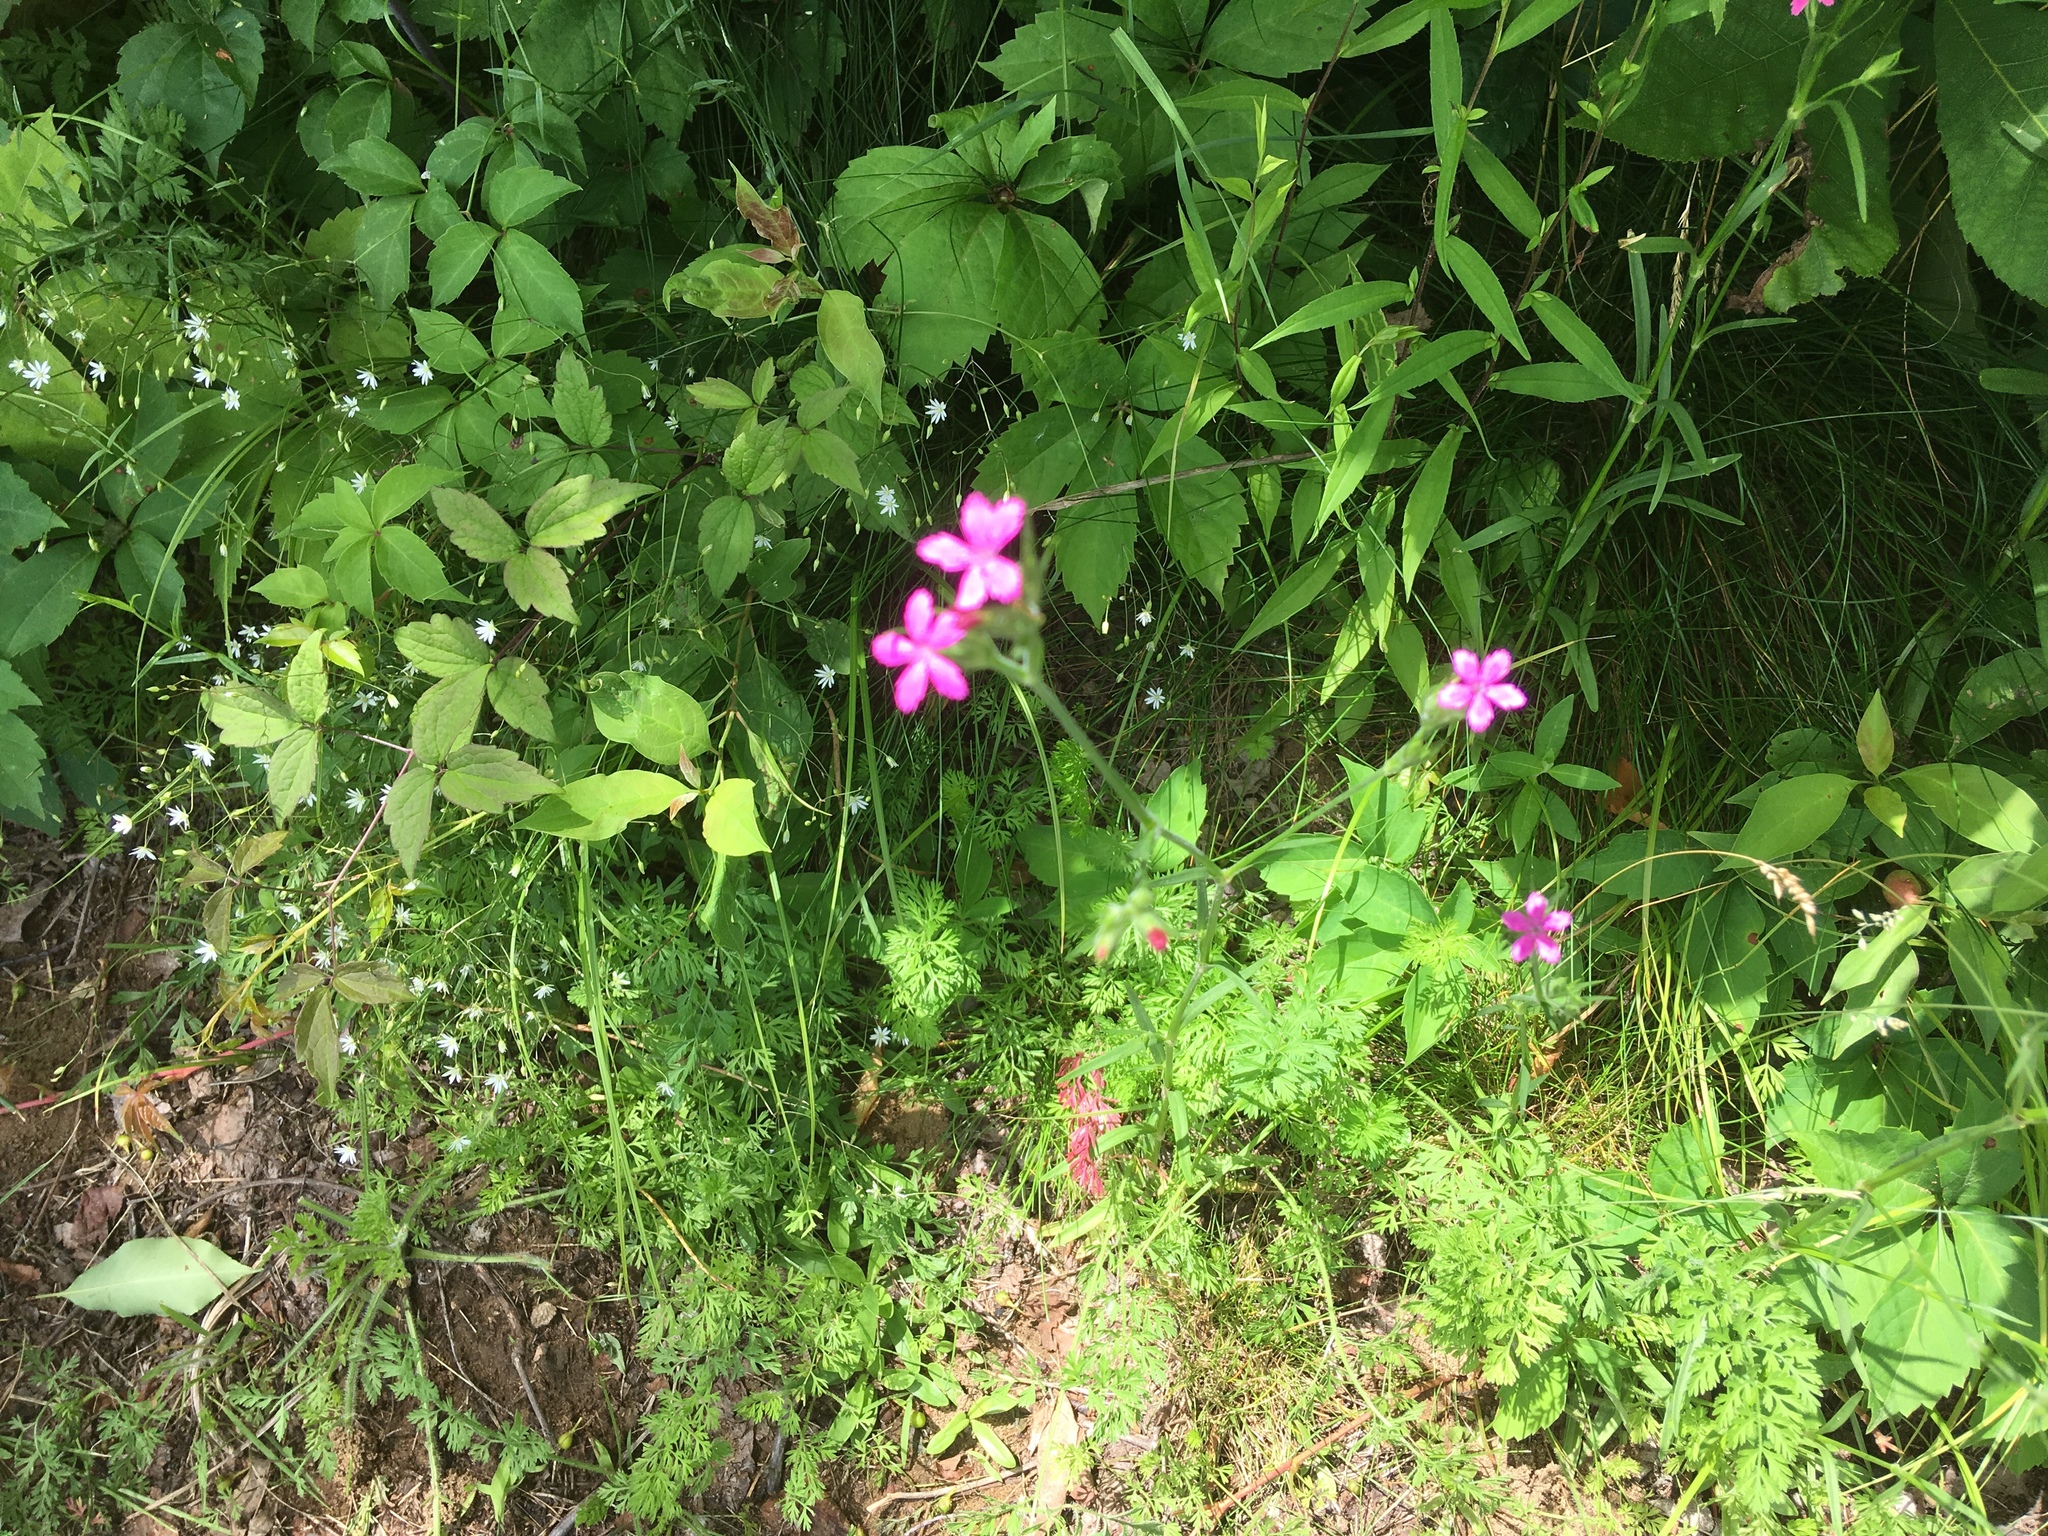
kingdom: Plantae
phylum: Tracheophyta
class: Magnoliopsida
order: Caryophyllales
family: Caryophyllaceae
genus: Dianthus
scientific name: Dianthus armeria
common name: Deptford pink
